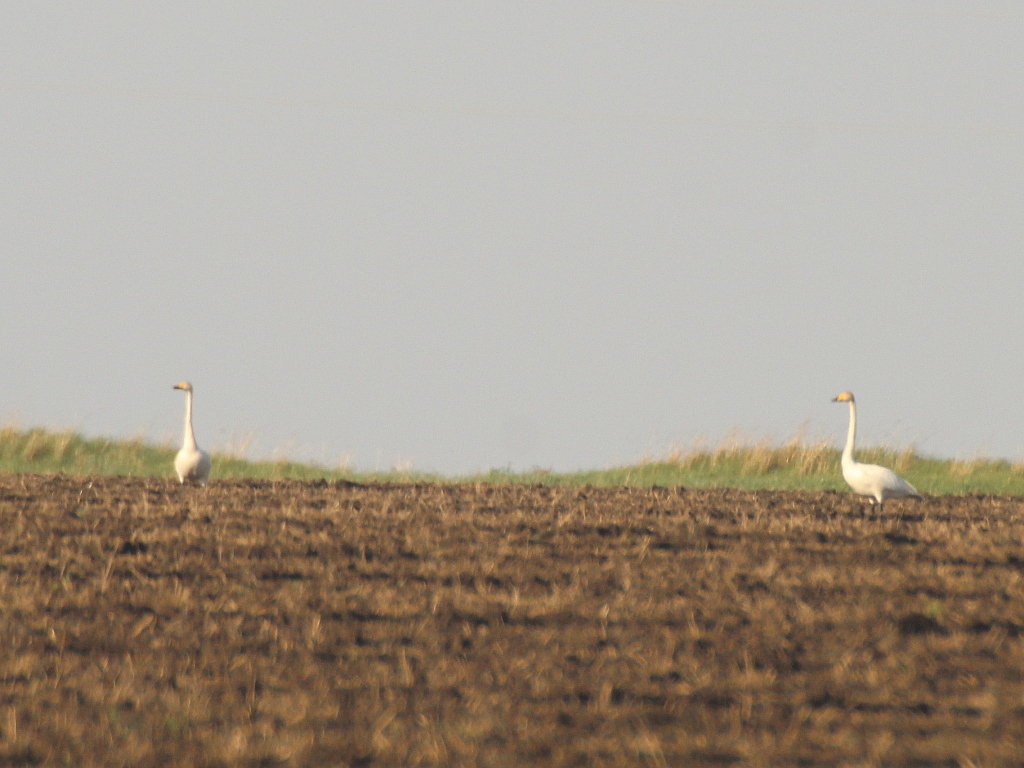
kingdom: Animalia
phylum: Chordata
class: Aves
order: Anseriformes
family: Anatidae
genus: Cygnus
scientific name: Cygnus cygnus
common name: Whooper swan
